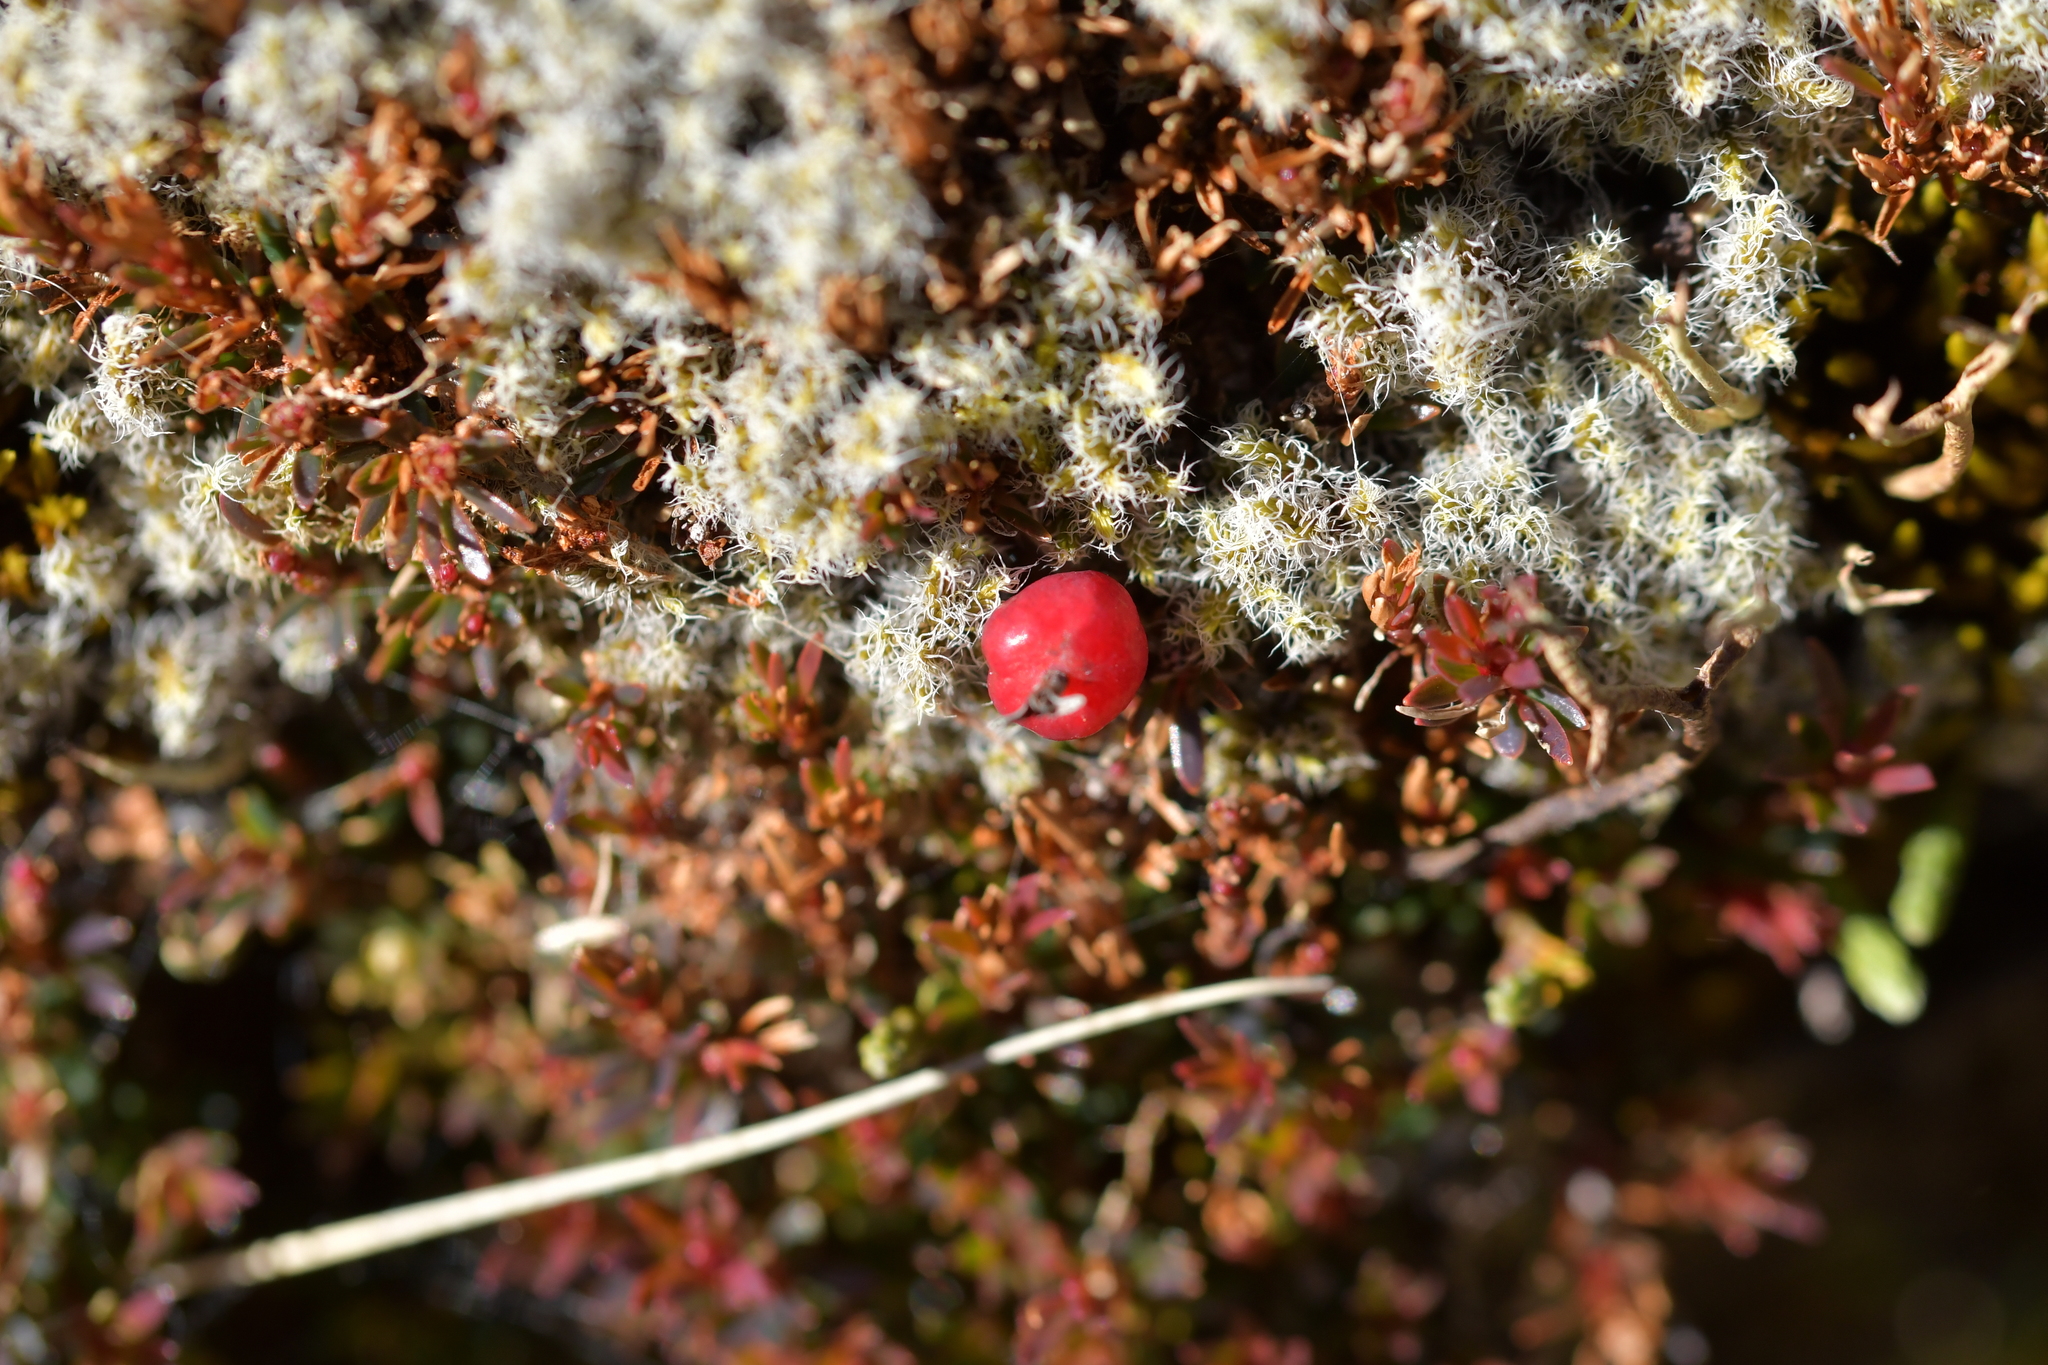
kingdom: Plantae
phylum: Tracheophyta
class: Magnoliopsida
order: Ericales
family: Ericaceae
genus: Pentachondra
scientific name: Pentachondra pumila
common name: Carpet-heath
